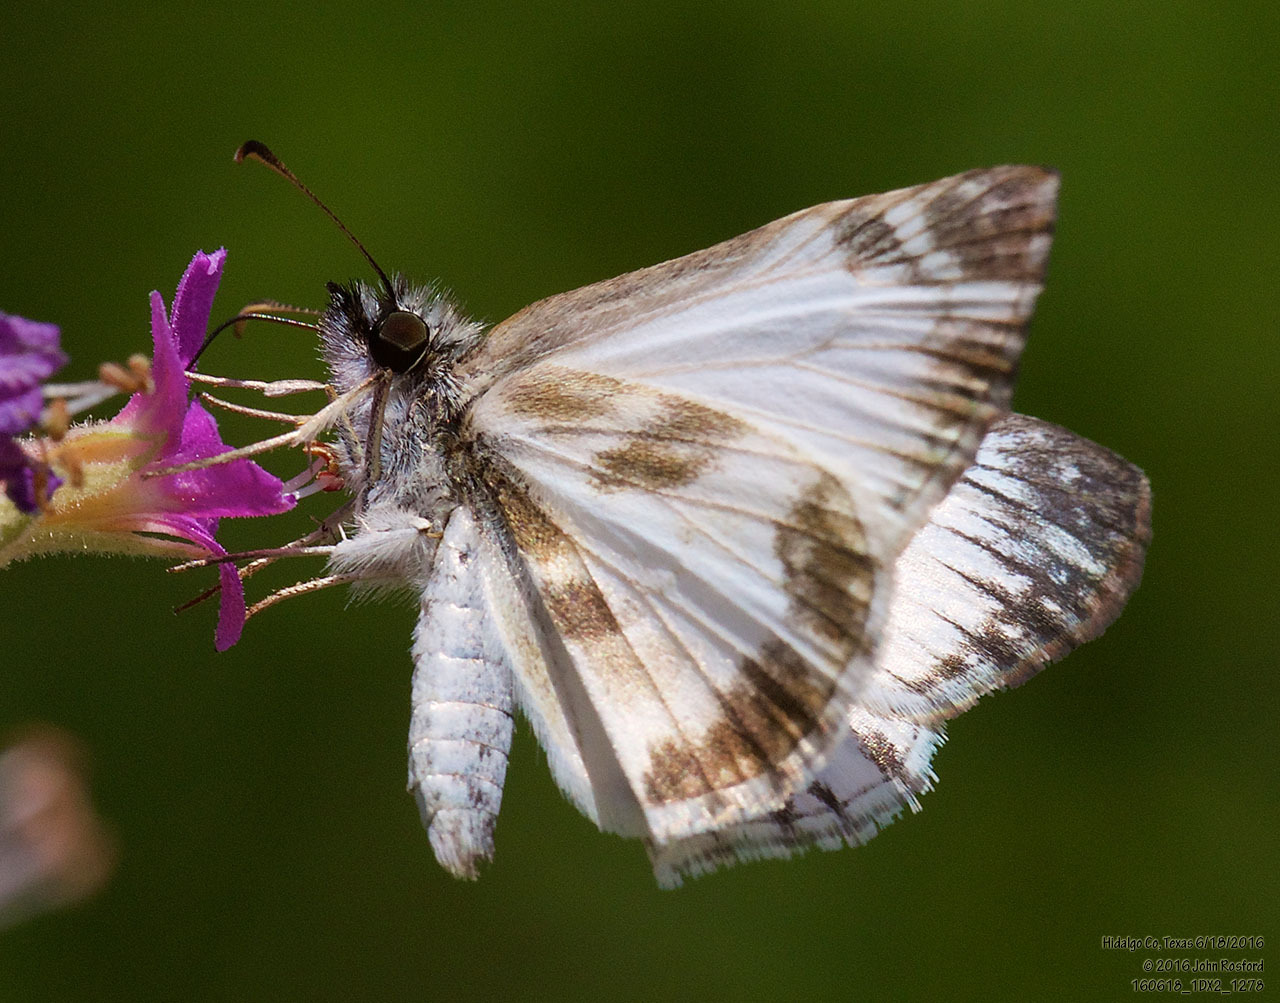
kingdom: Animalia
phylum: Arthropoda
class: Insecta
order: Lepidoptera
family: Hesperiidae
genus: Heliopetes
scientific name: Heliopetes macaira
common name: Turk's-cap white-skipper
